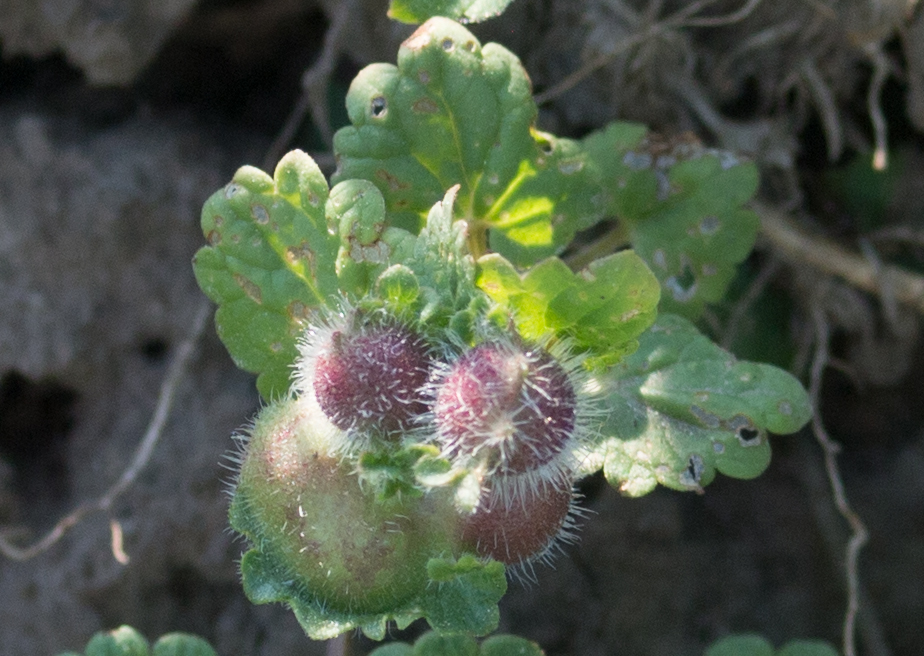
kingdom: Animalia
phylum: Arthropoda
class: Insecta
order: Hymenoptera
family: Cynipidae
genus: Liposthenes
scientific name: Liposthenes glechomae
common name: Gall wasp
